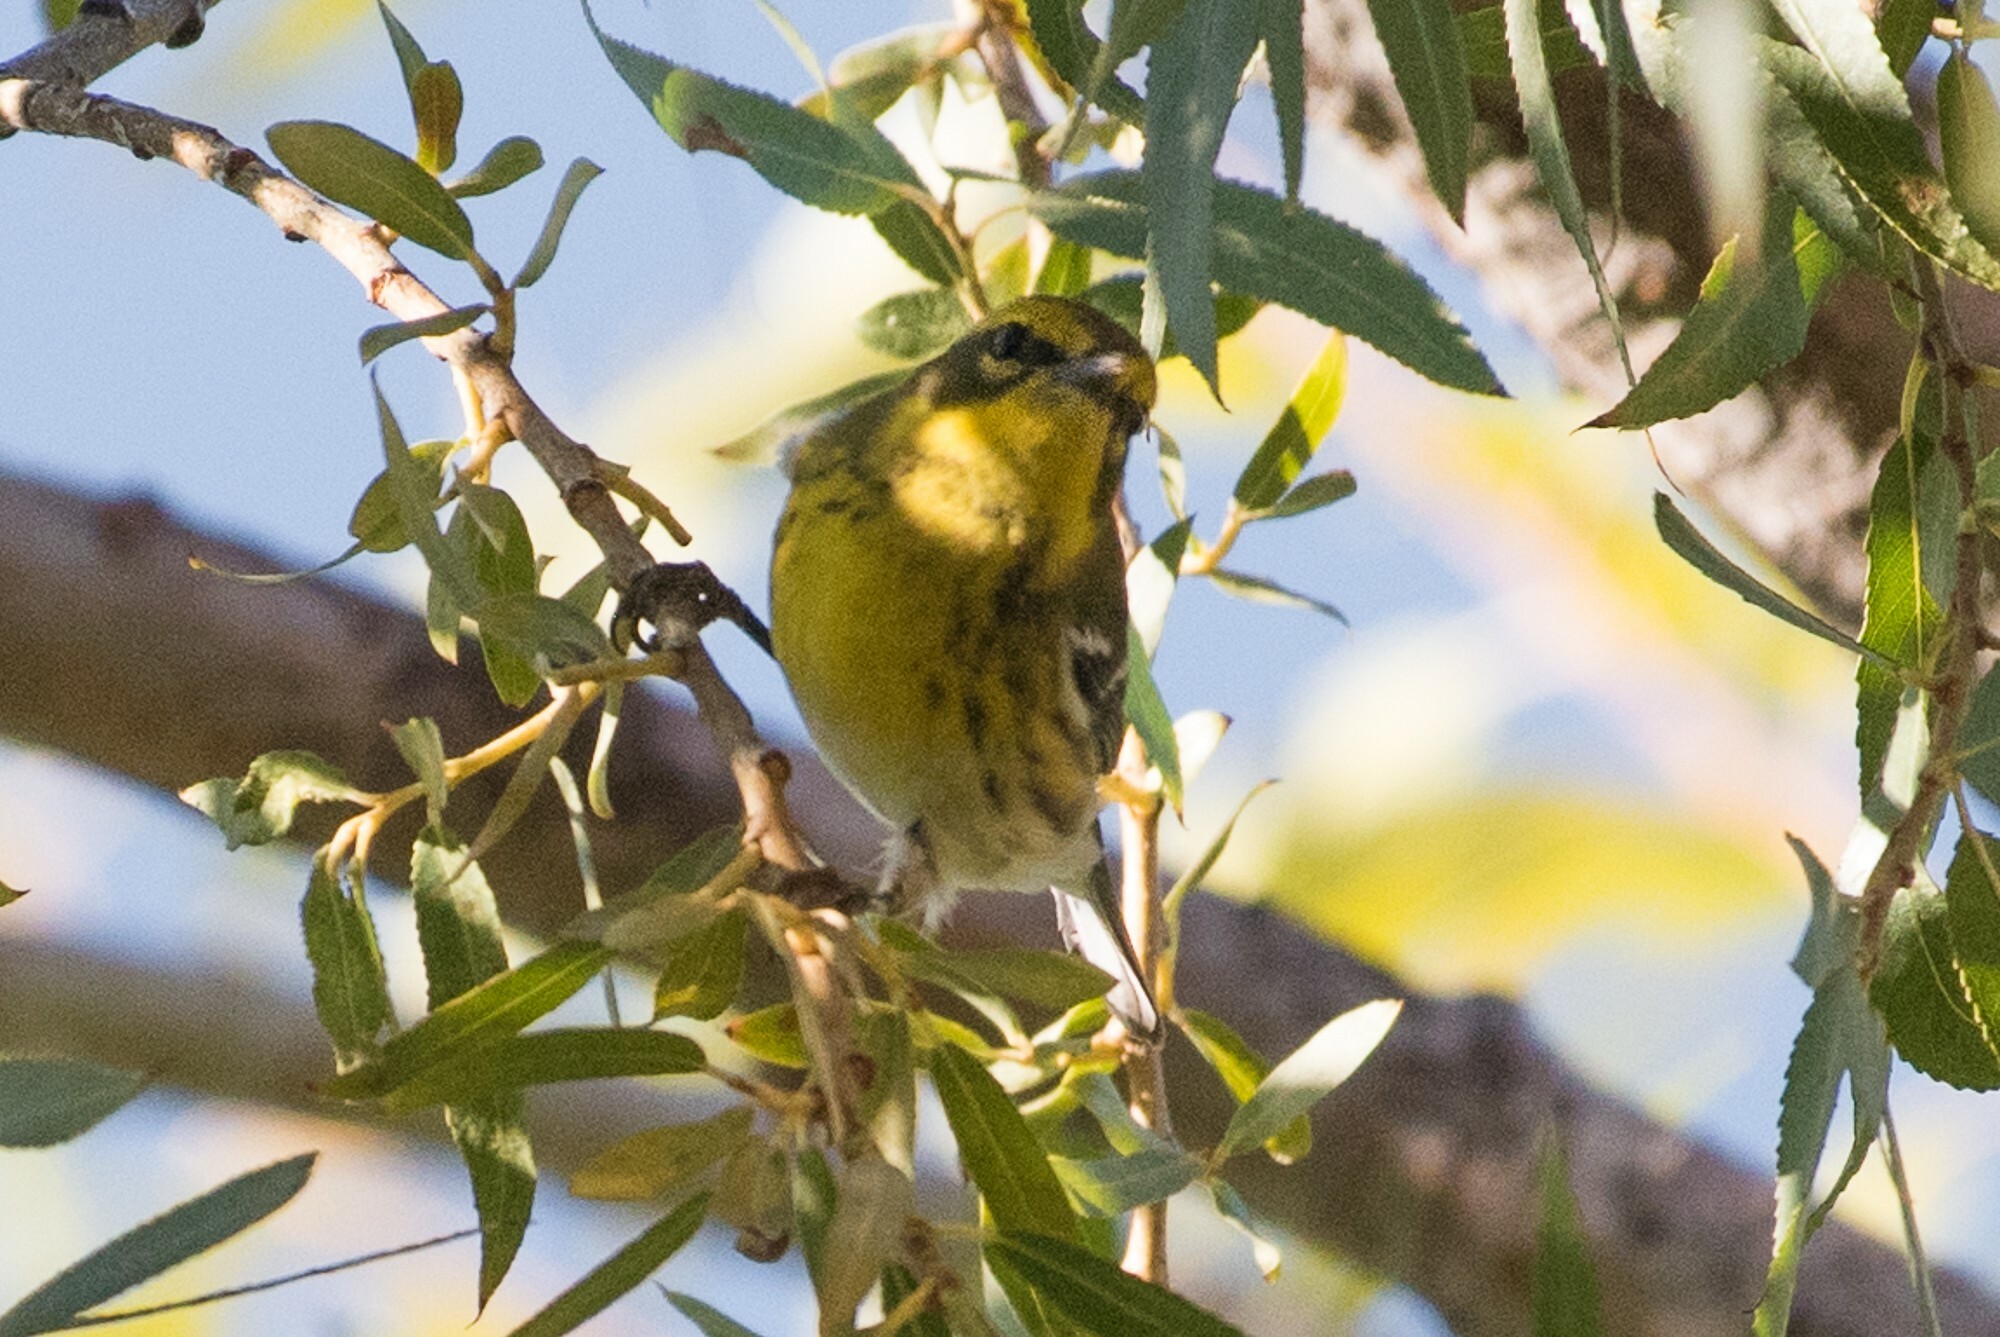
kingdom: Animalia
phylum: Chordata
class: Aves
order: Passeriformes
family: Parulidae
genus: Setophaga
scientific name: Setophaga townsendi
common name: Townsend's warbler
